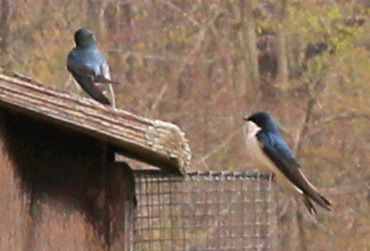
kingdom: Animalia
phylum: Chordata
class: Aves
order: Passeriformes
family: Hirundinidae
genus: Tachycineta
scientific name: Tachycineta bicolor
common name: Tree swallow
